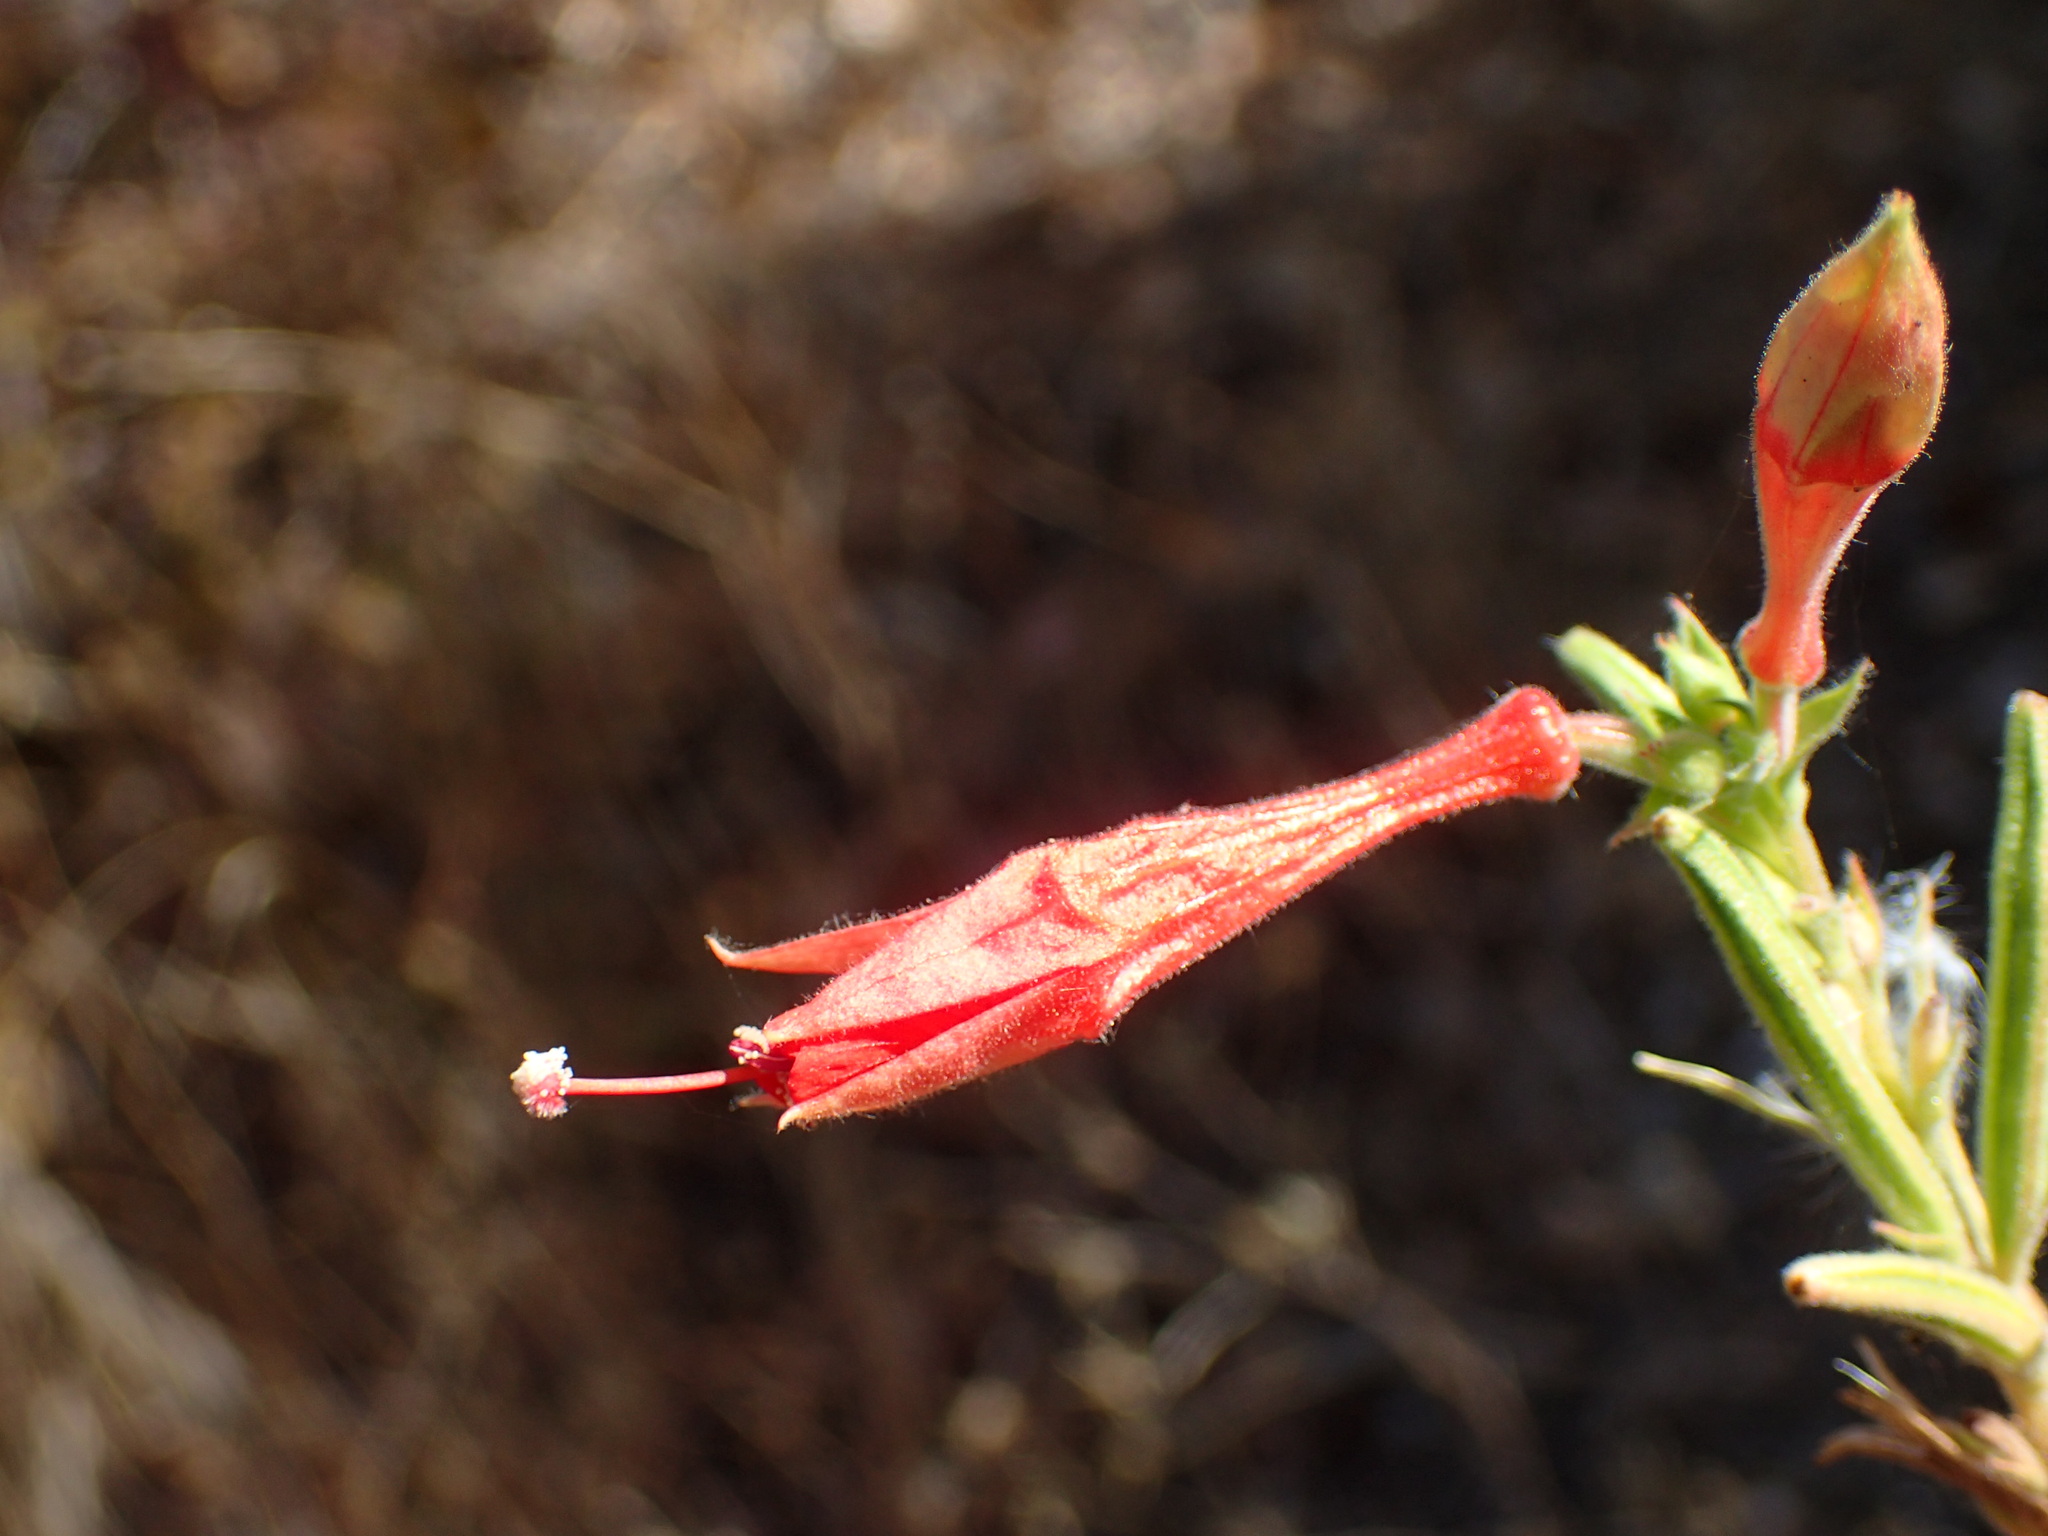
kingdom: Plantae
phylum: Tracheophyta
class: Magnoliopsida
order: Myrtales
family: Onagraceae
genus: Epilobium
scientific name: Epilobium canum
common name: California-fuchsia
